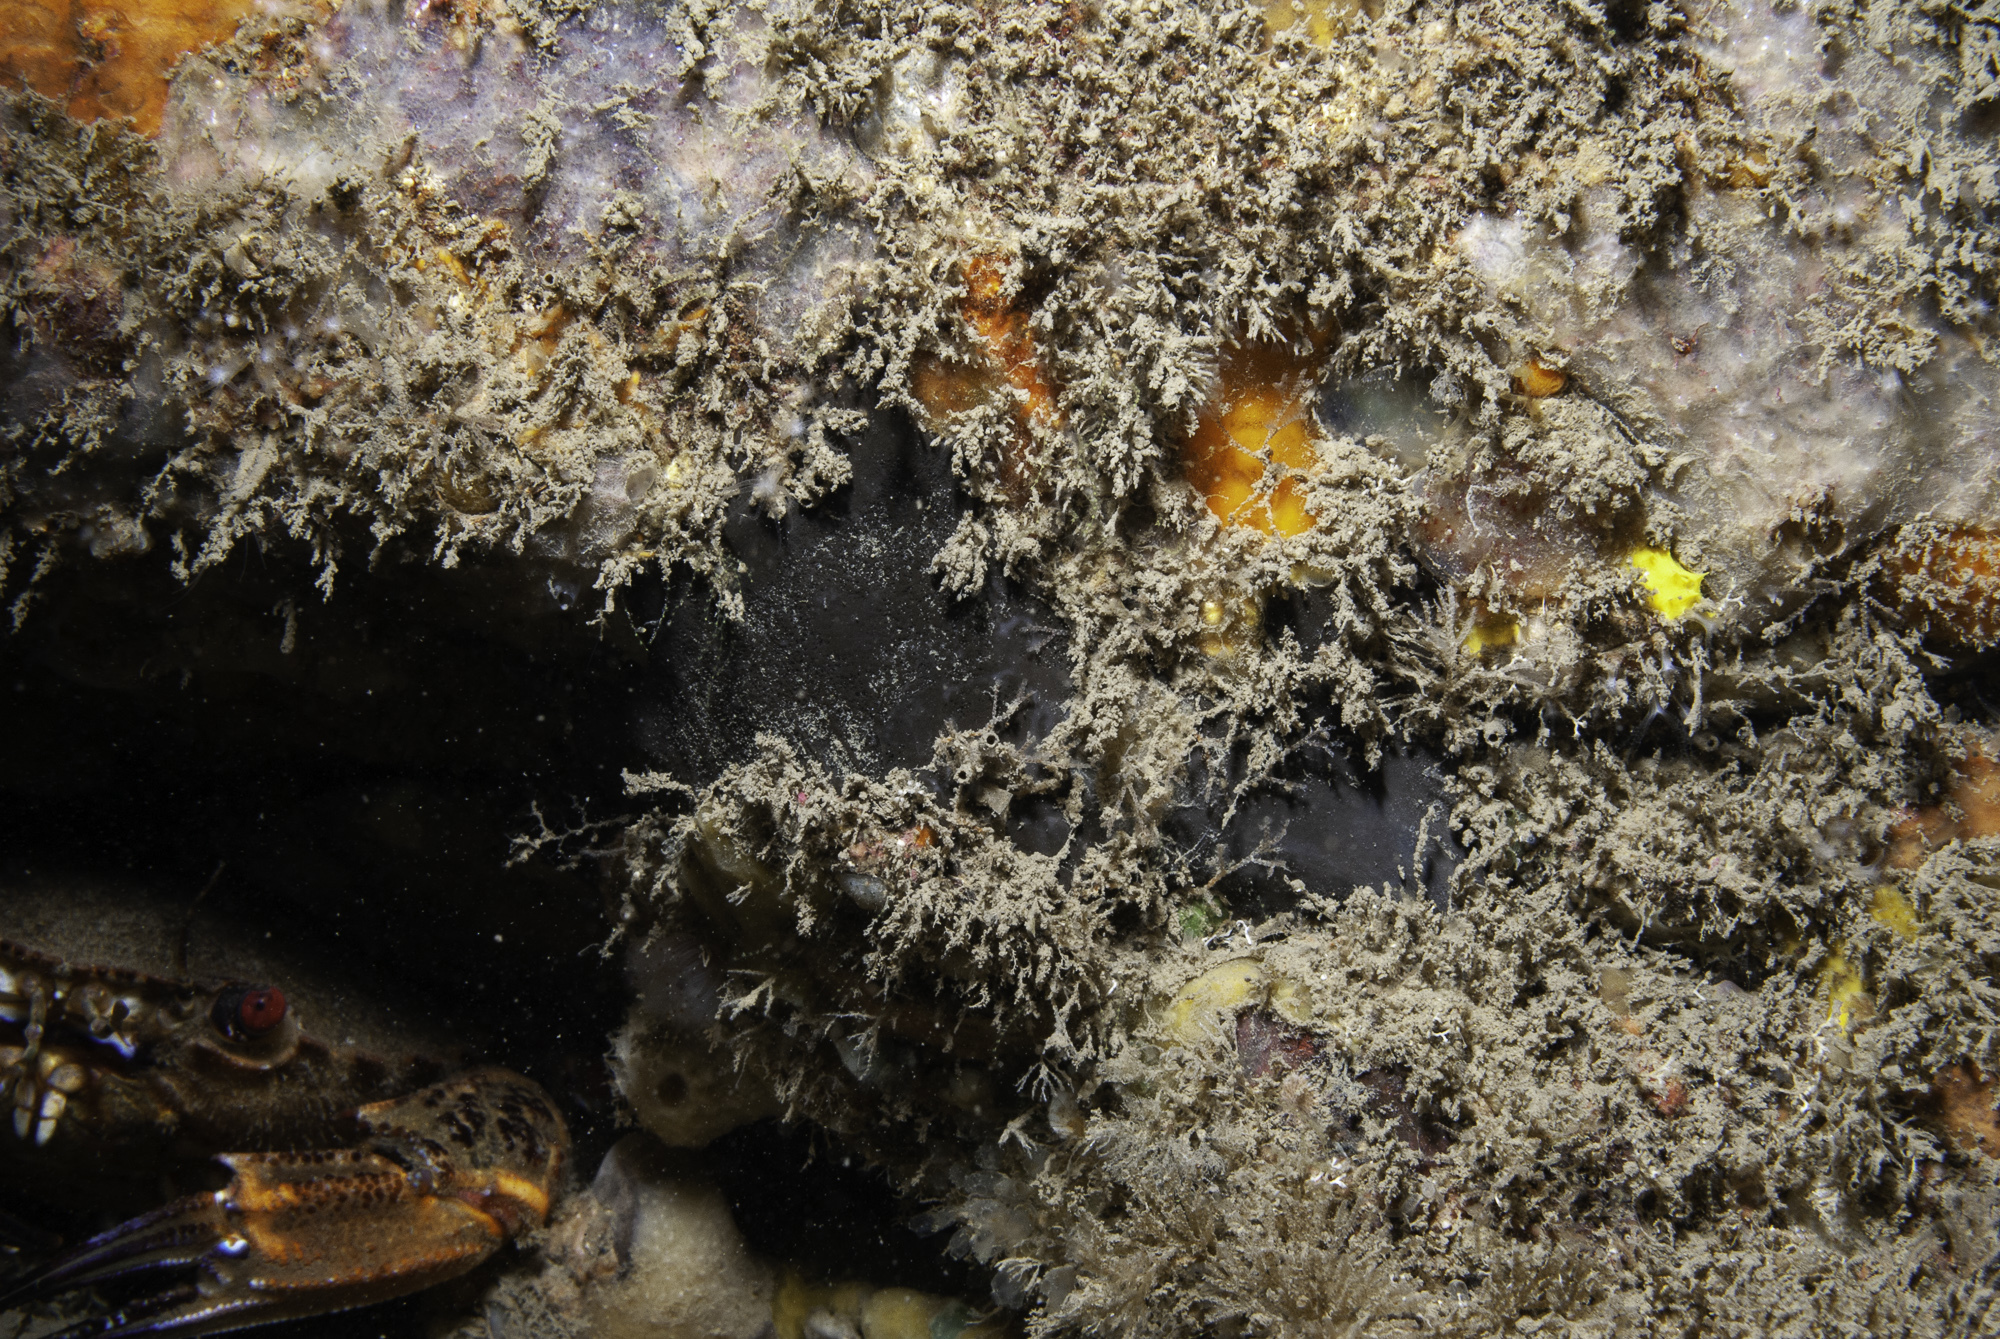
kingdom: Animalia
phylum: Porifera
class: Demospongiae
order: Tetractinellida
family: Ancorinidae
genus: Dercitus
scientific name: Dercitus bucklandi
